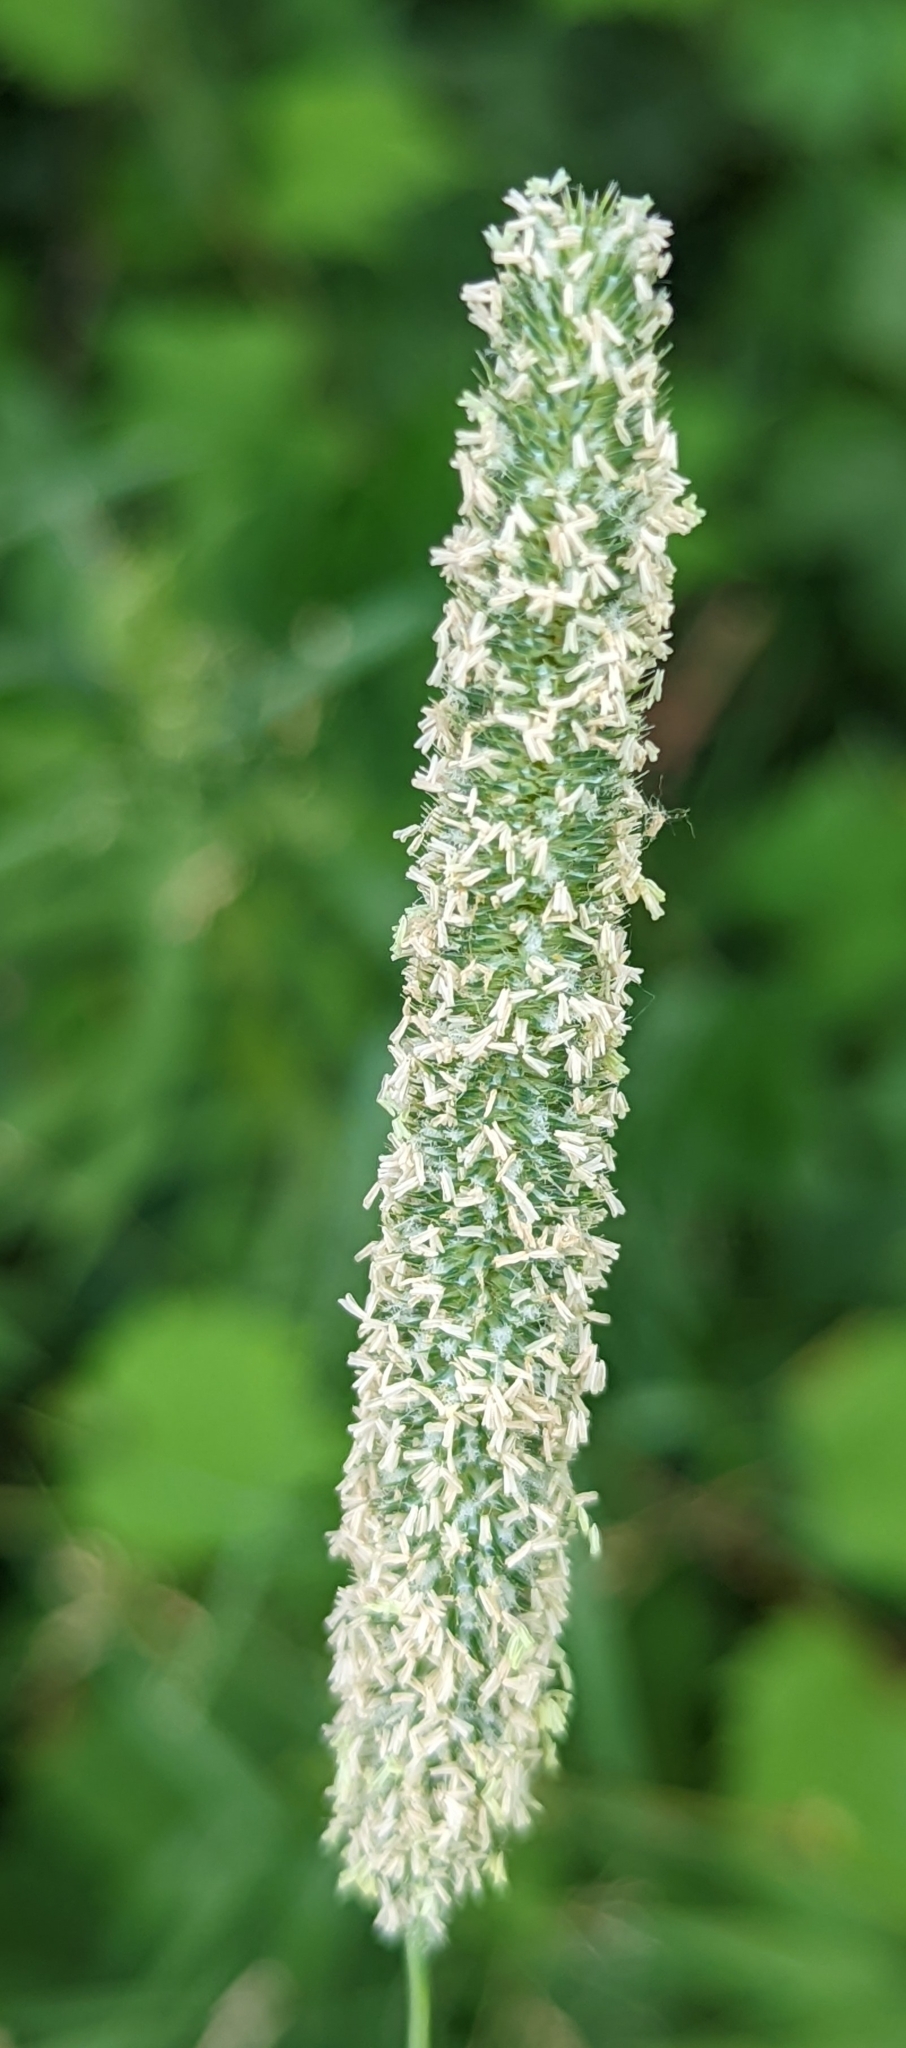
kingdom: Plantae
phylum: Tracheophyta
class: Liliopsida
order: Poales
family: Poaceae
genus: Phleum
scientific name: Phleum pratense
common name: Timothy grass
